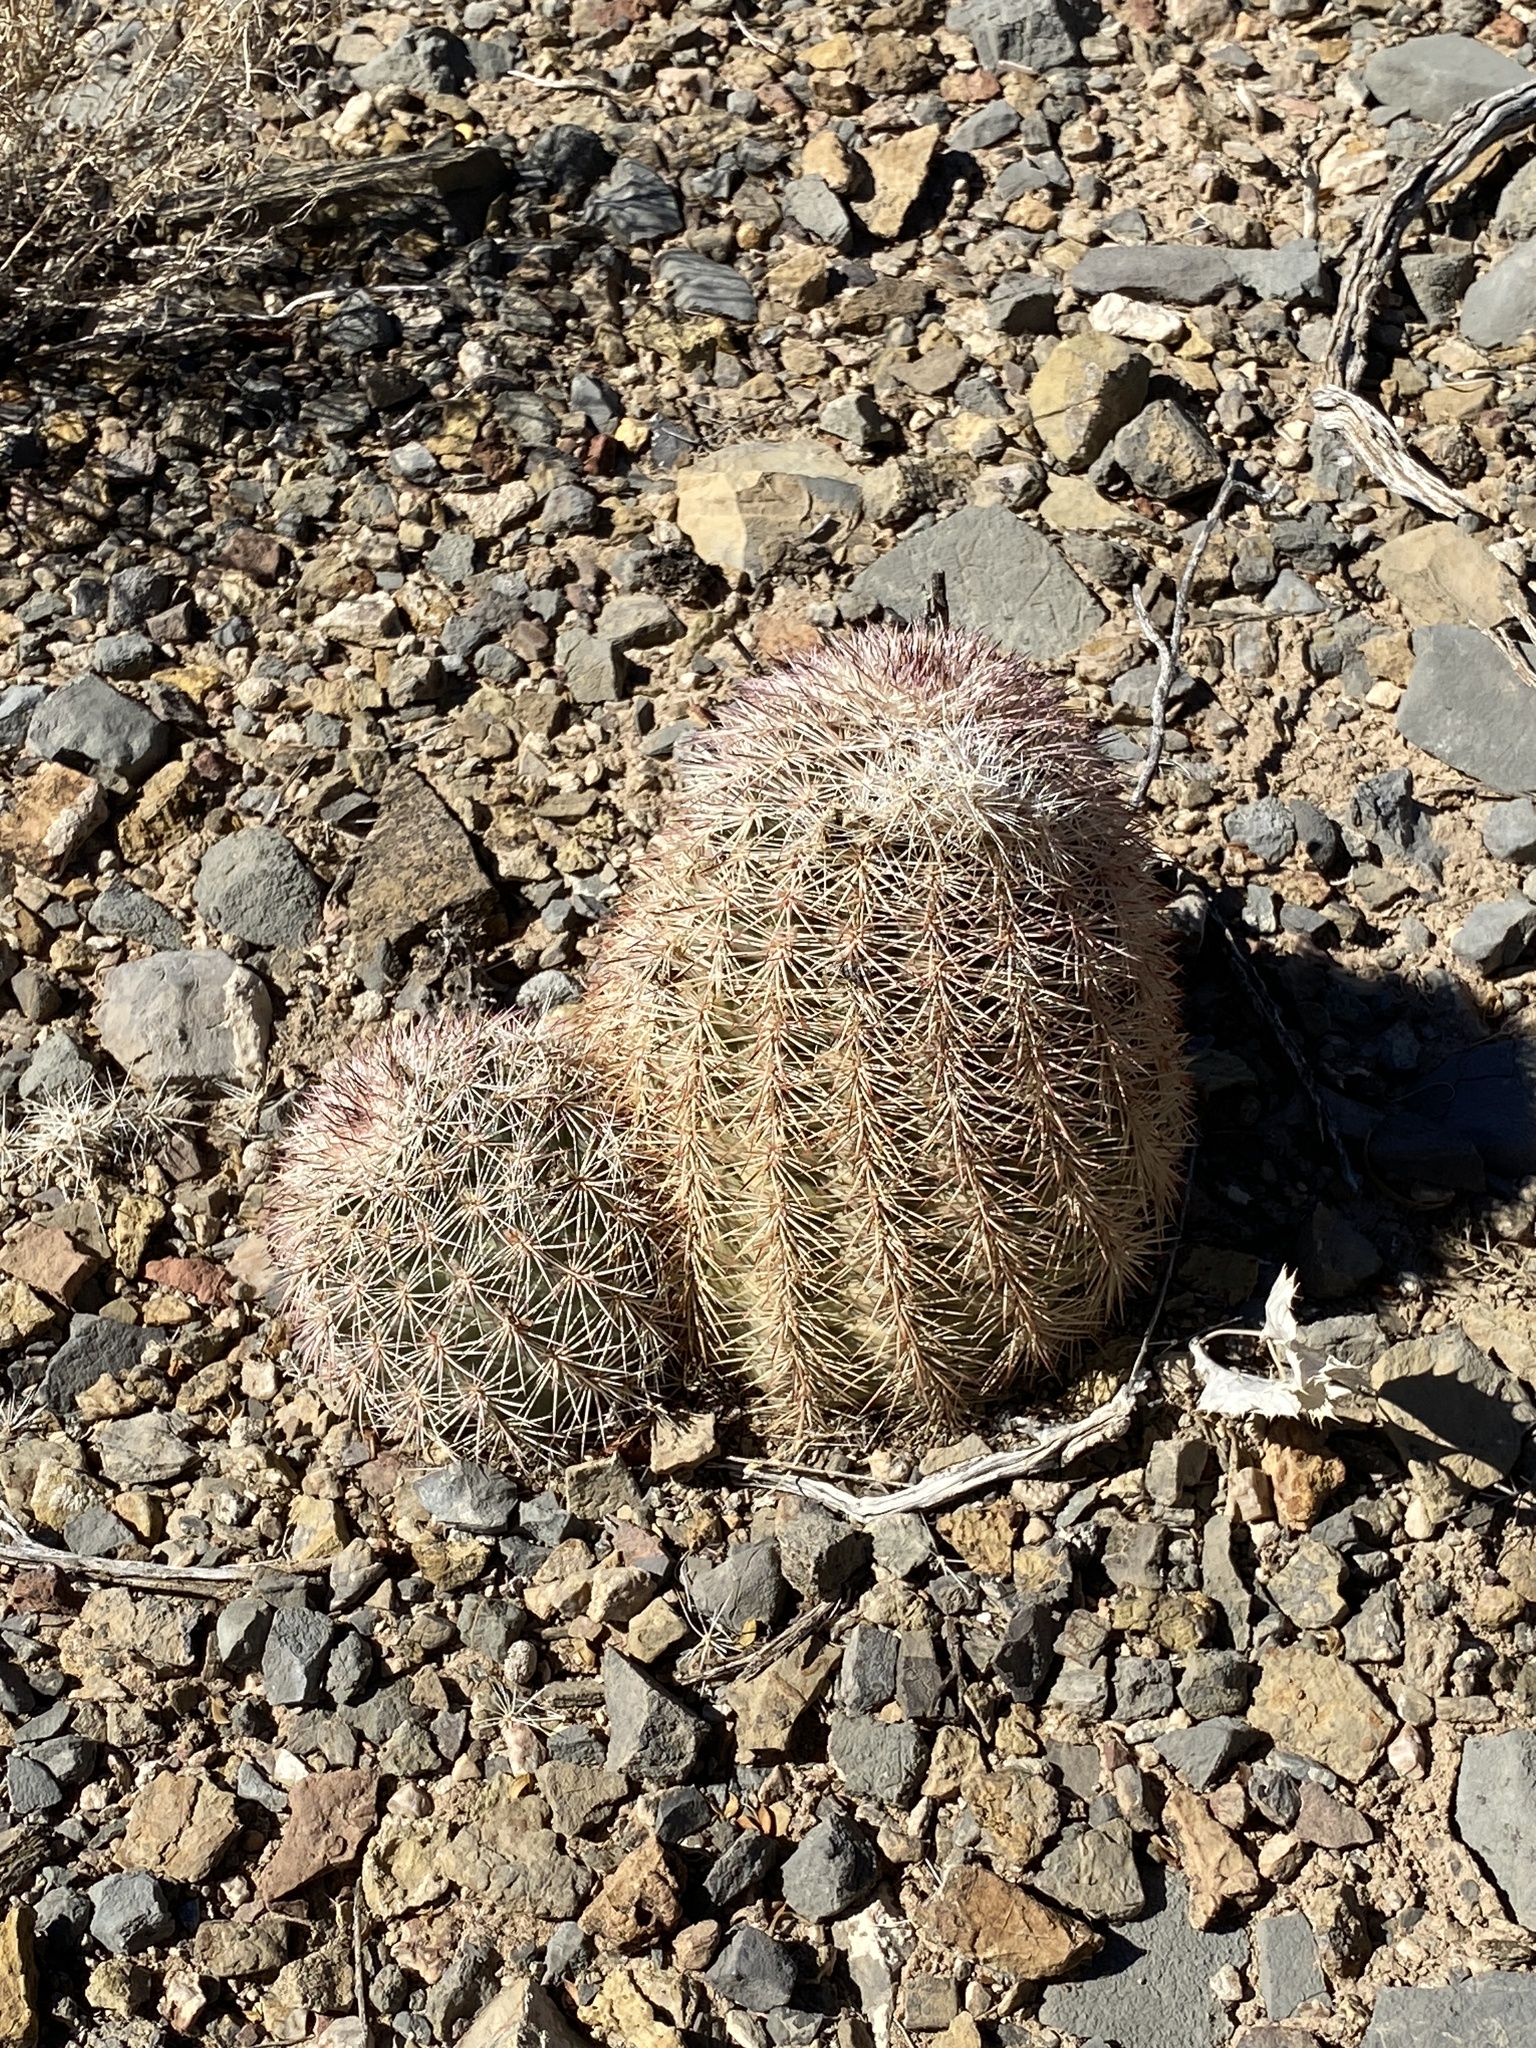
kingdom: Plantae
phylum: Tracheophyta
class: Magnoliopsida
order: Caryophyllales
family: Cactaceae
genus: Echinocereus
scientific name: Echinocereus dasyacanthus
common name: Spiny hedgehog cactus
